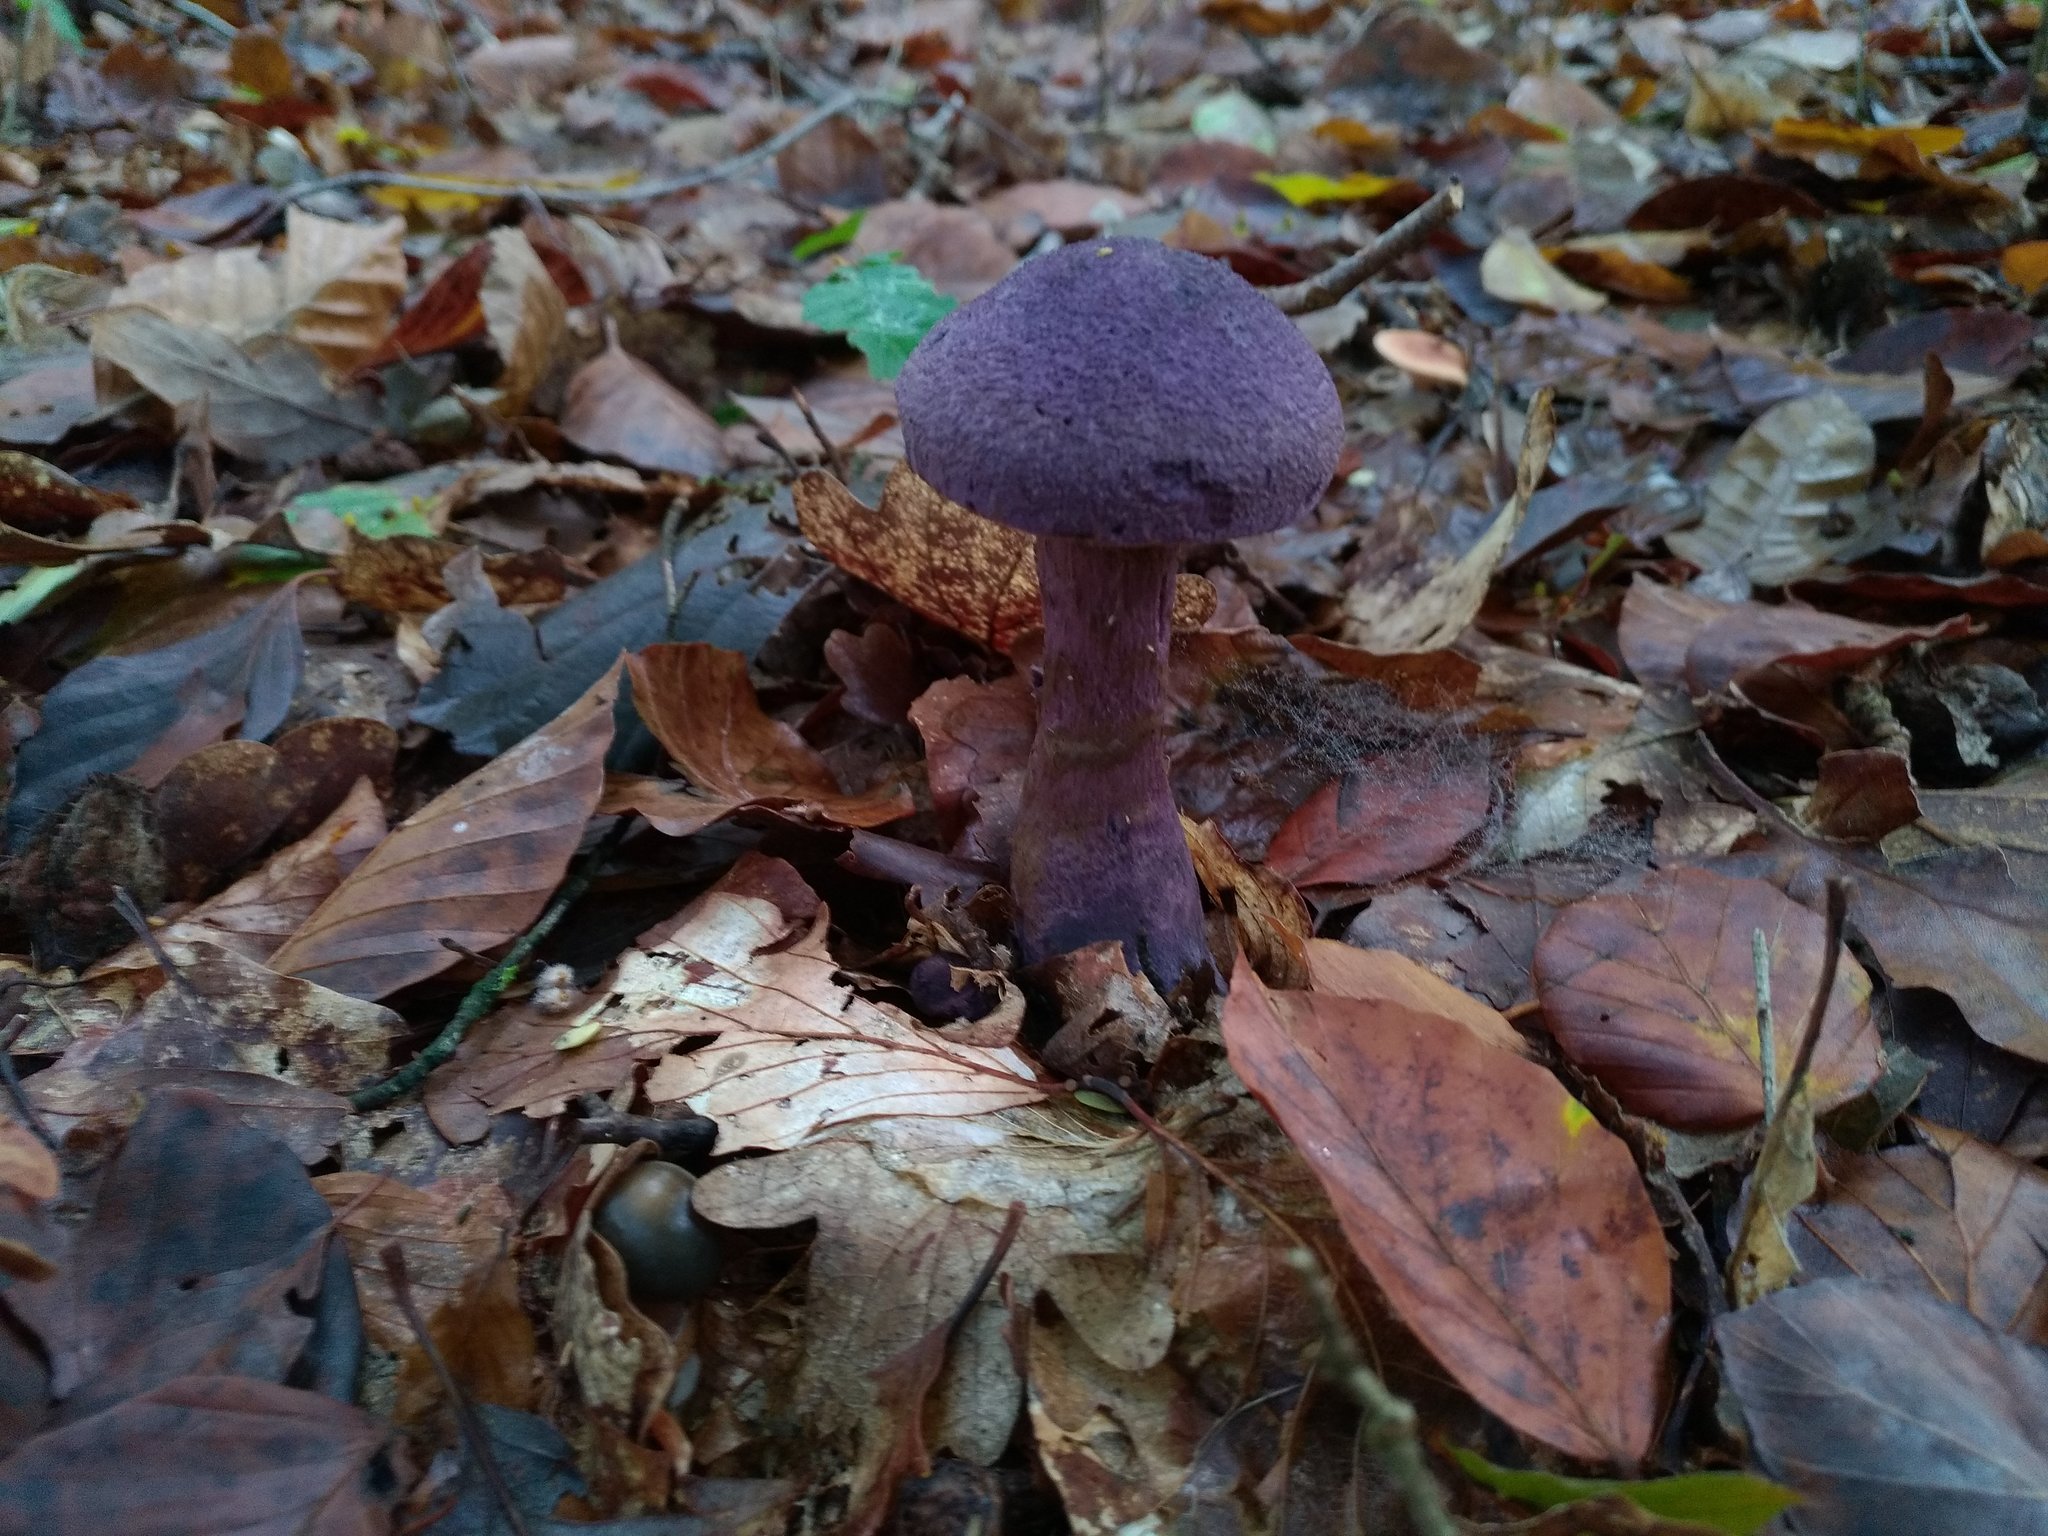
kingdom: Fungi
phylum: Basidiomycota
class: Agaricomycetes
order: Agaricales
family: Cortinariaceae
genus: Cortinarius
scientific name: Cortinarius violaceus
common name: Violet webcap
